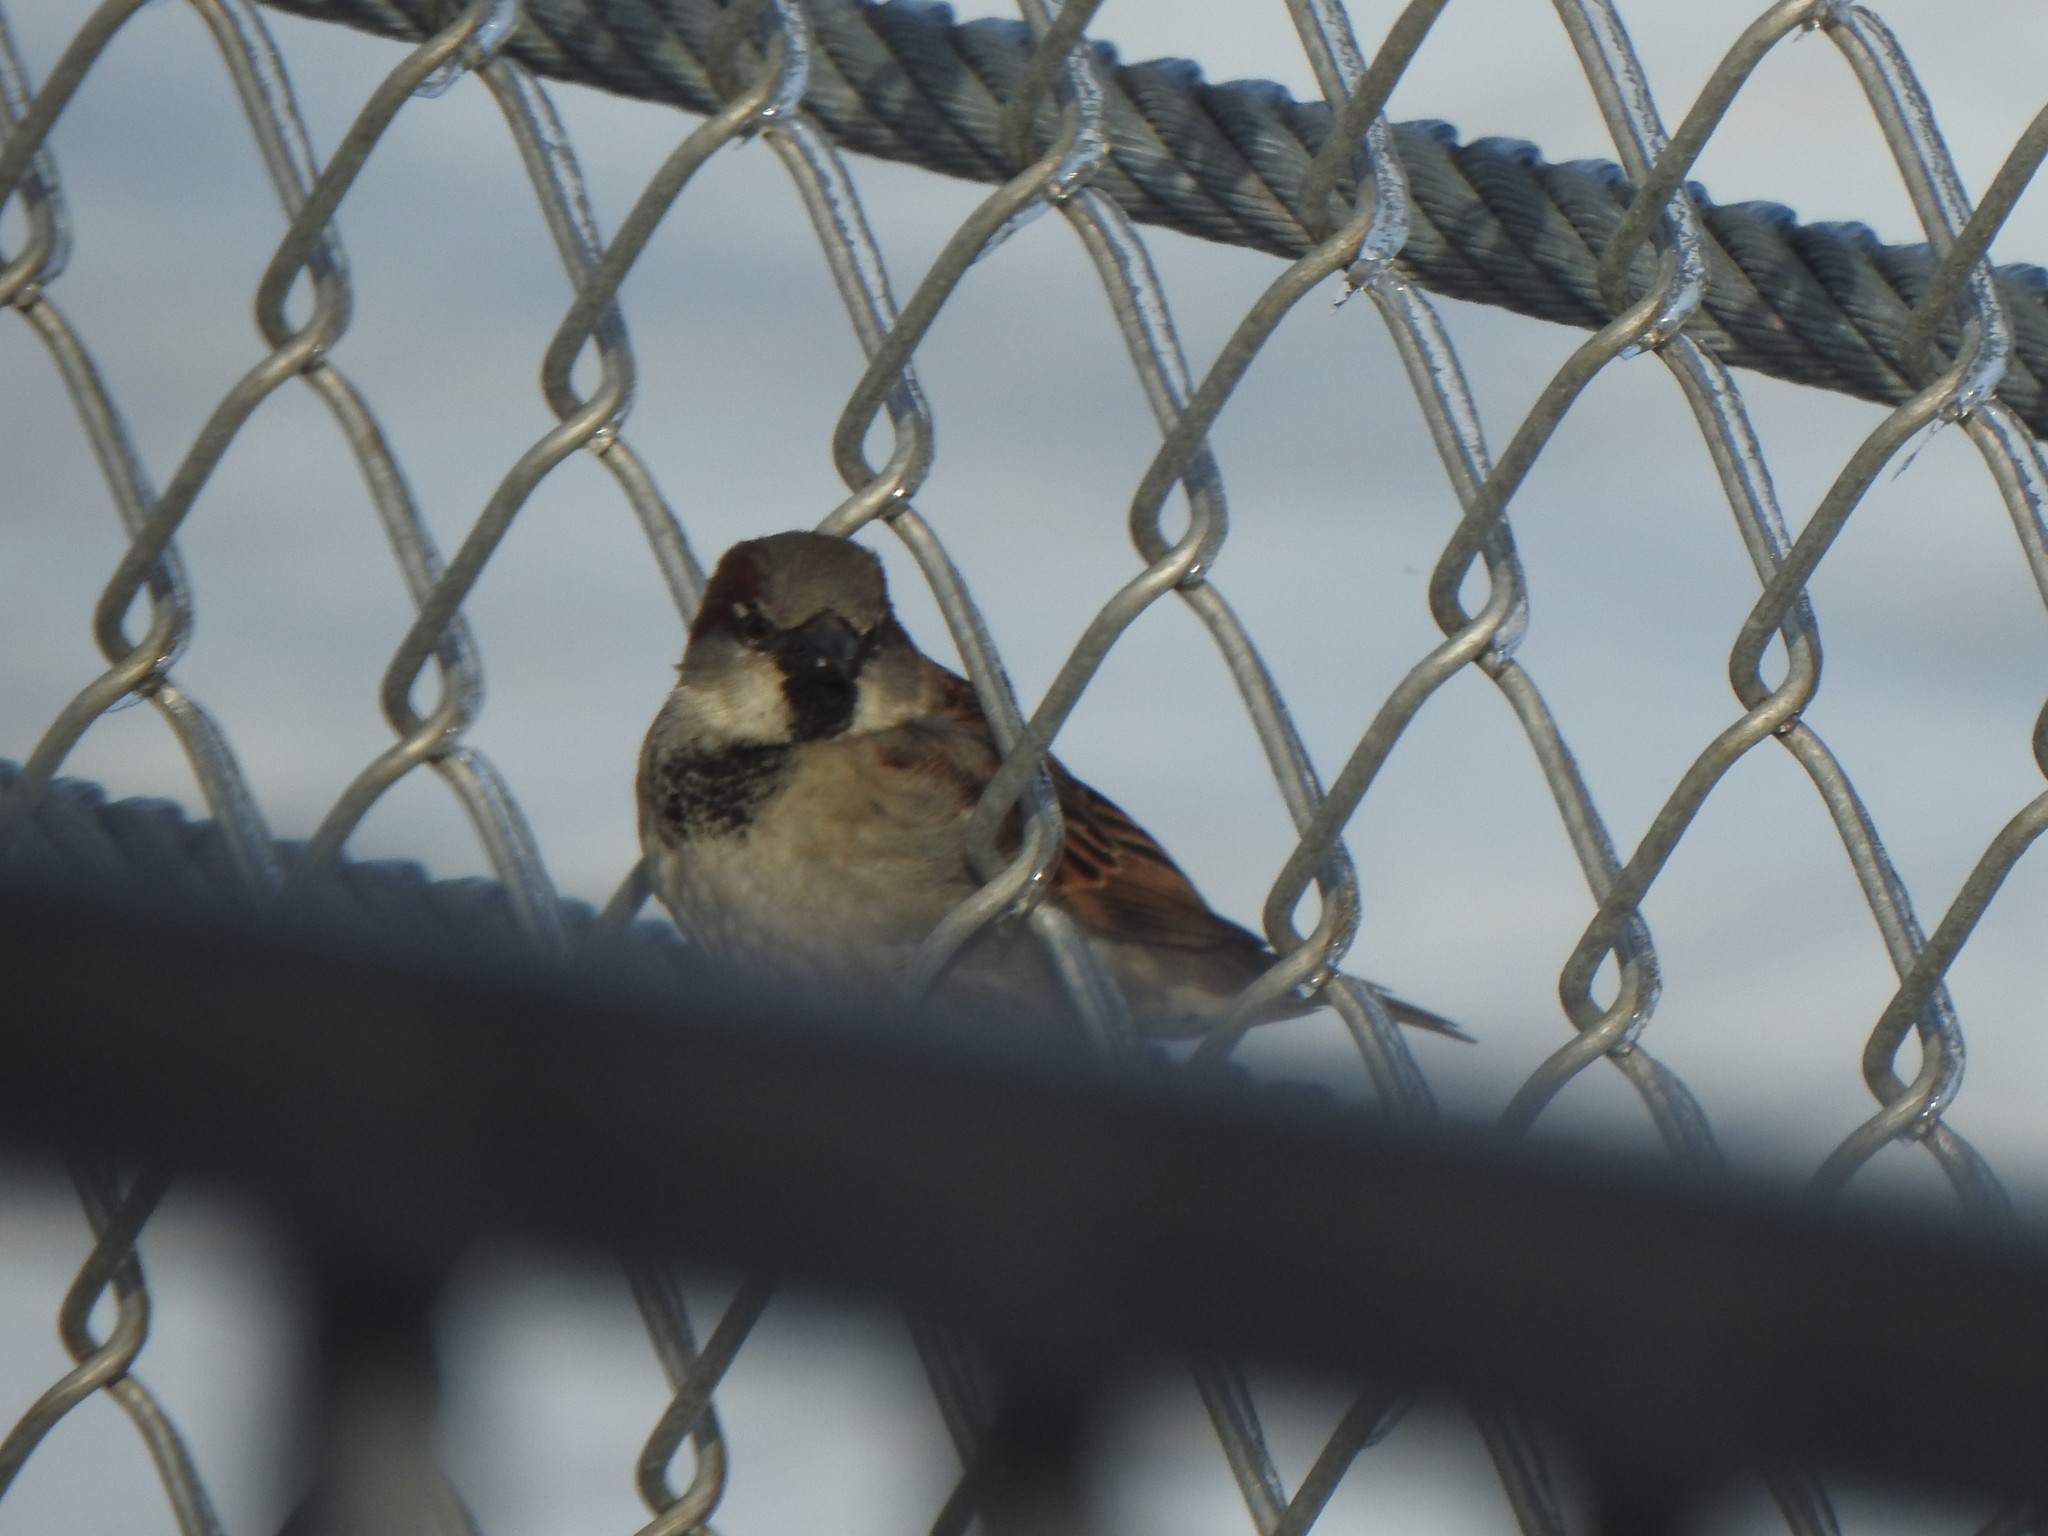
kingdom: Animalia
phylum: Chordata
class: Aves
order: Passeriformes
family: Passeridae
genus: Passer
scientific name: Passer domesticus
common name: House sparrow
